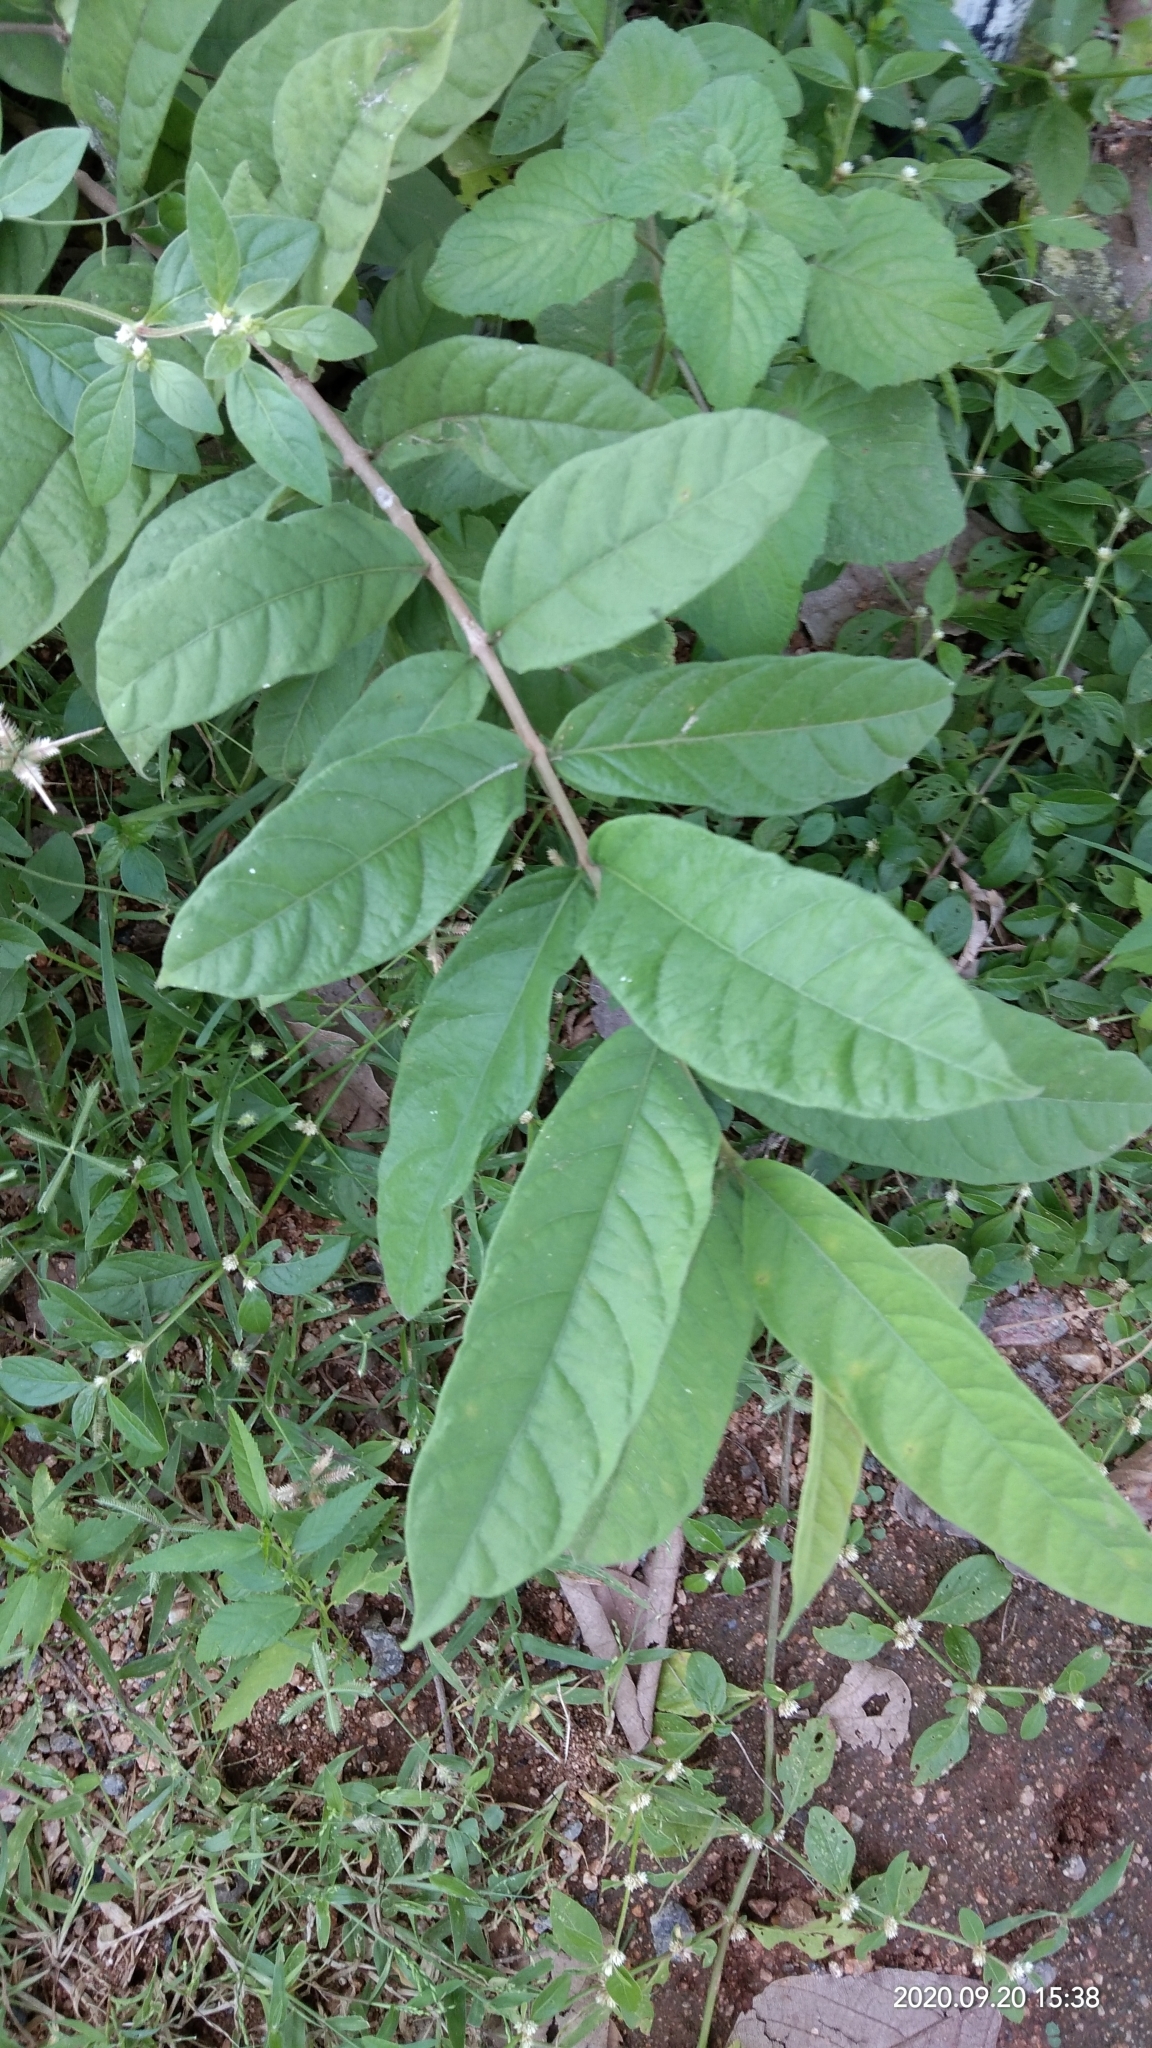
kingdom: Plantae
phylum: Tracheophyta
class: Magnoliopsida
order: Gentianales
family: Apocynaceae
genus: Holarrhena
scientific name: Holarrhena pubescens
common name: Bitter oleander
